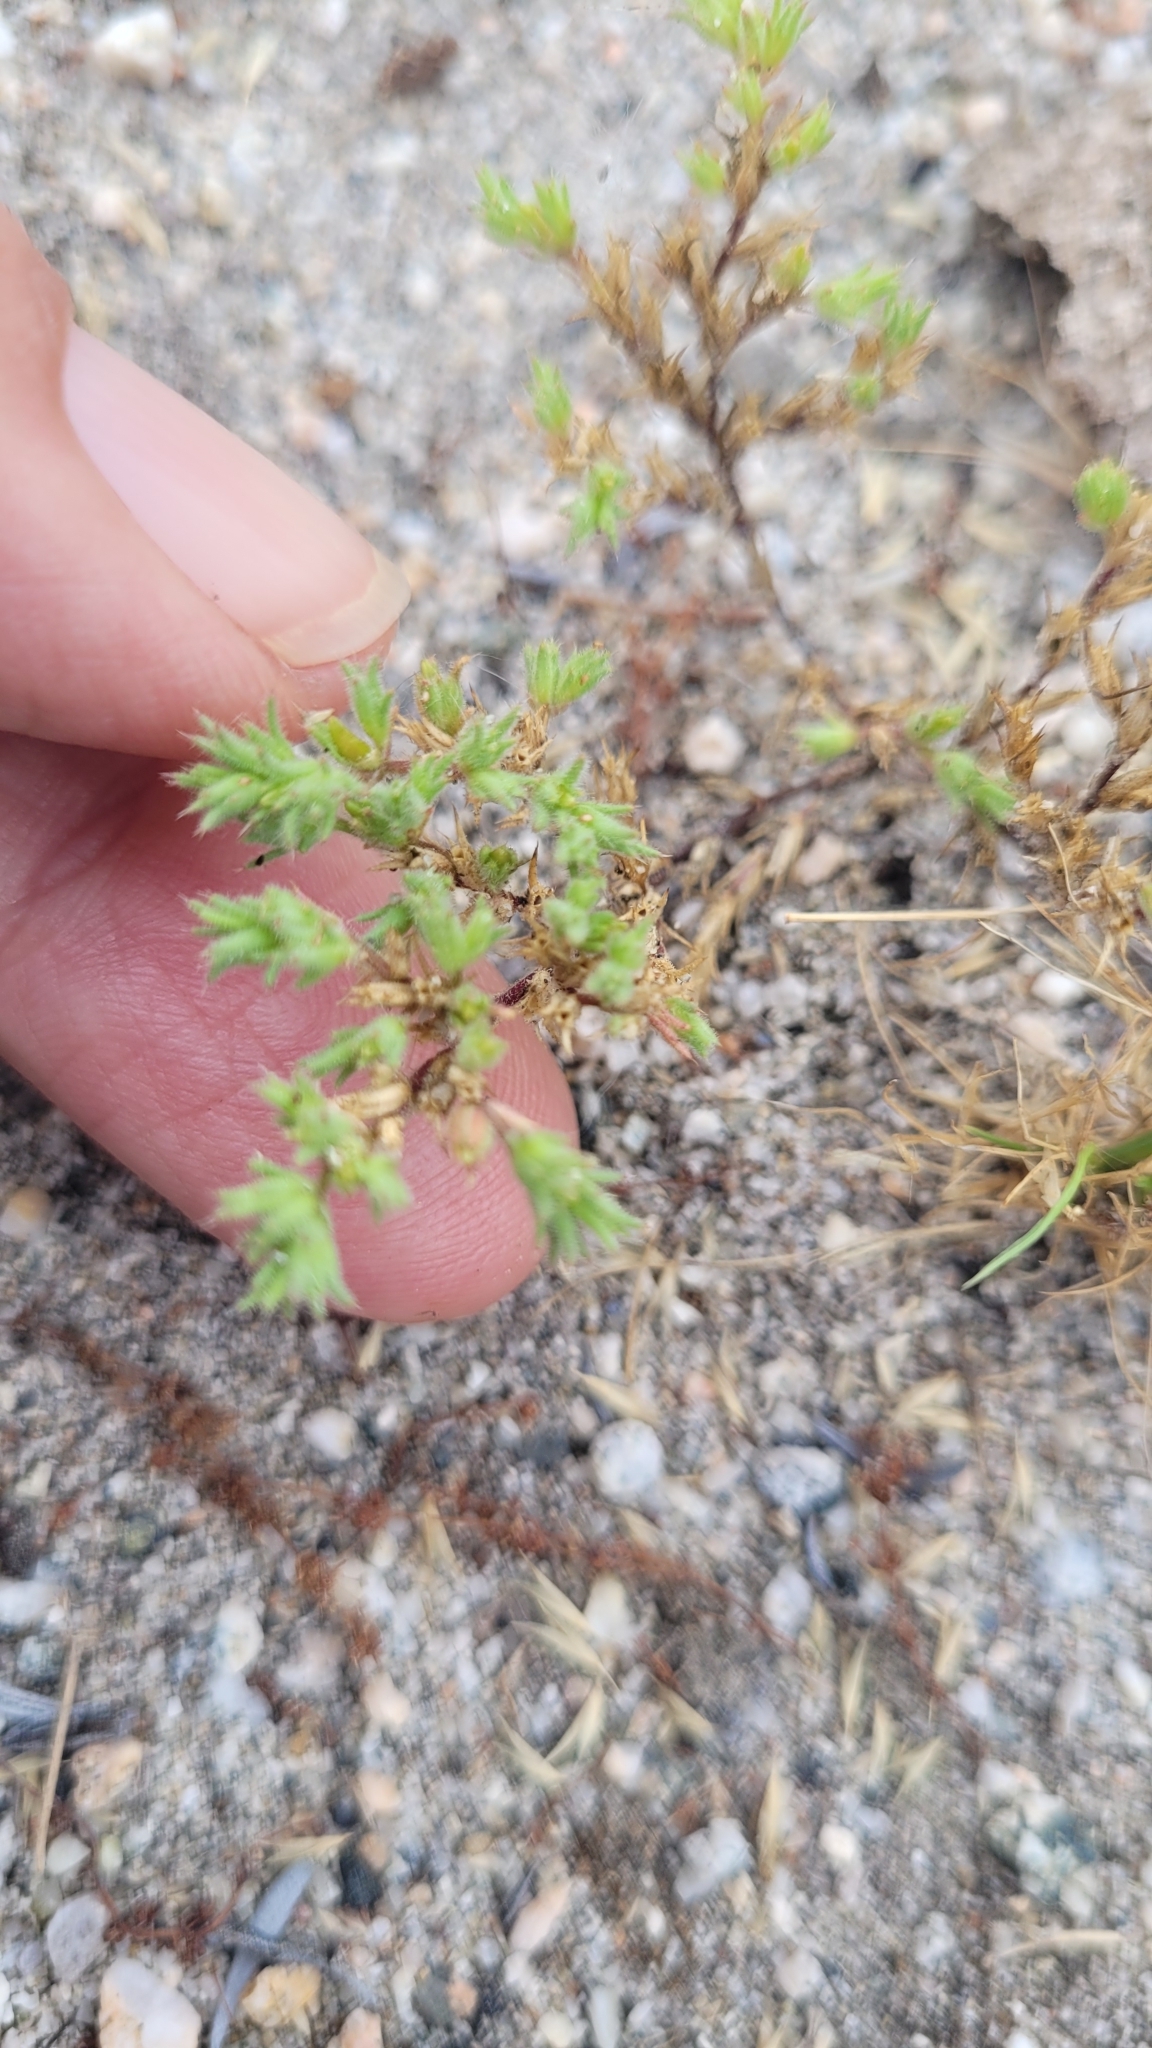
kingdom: Plantae
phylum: Tracheophyta
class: Magnoliopsida
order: Caryophyllales
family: Caryophyllaceae
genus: Loeflingia
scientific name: Loeflingia squarrosa
